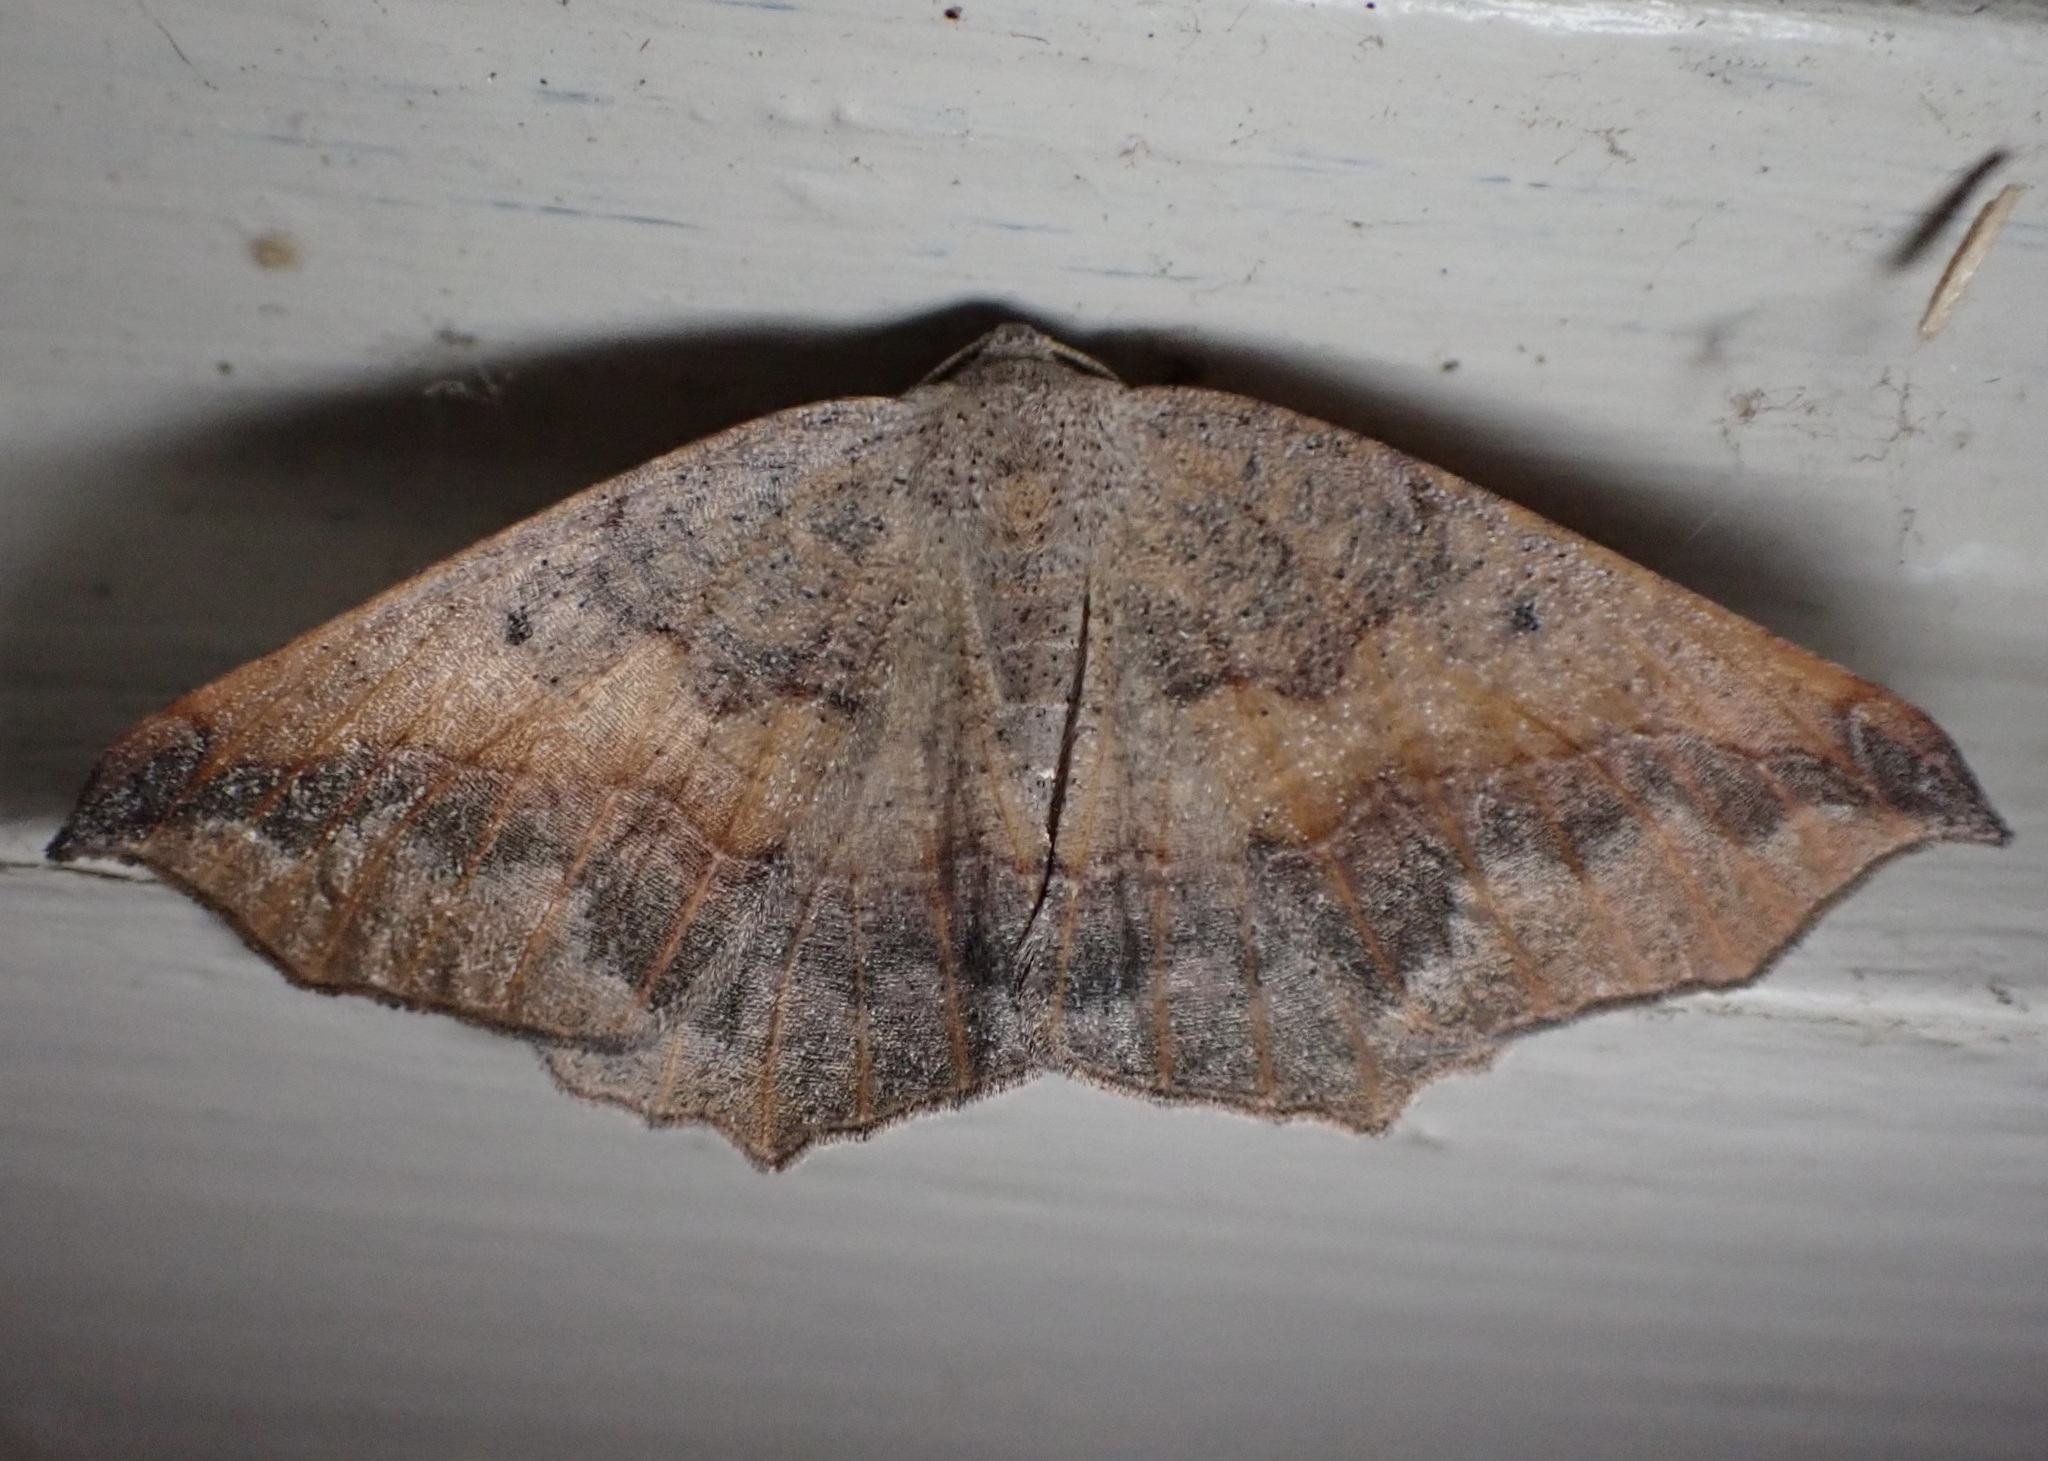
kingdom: Animalia
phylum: Arthropoda
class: Insecta
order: Lepidoptera
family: Geometridae
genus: Prochoerodes
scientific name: Prochoerodes forficaria
